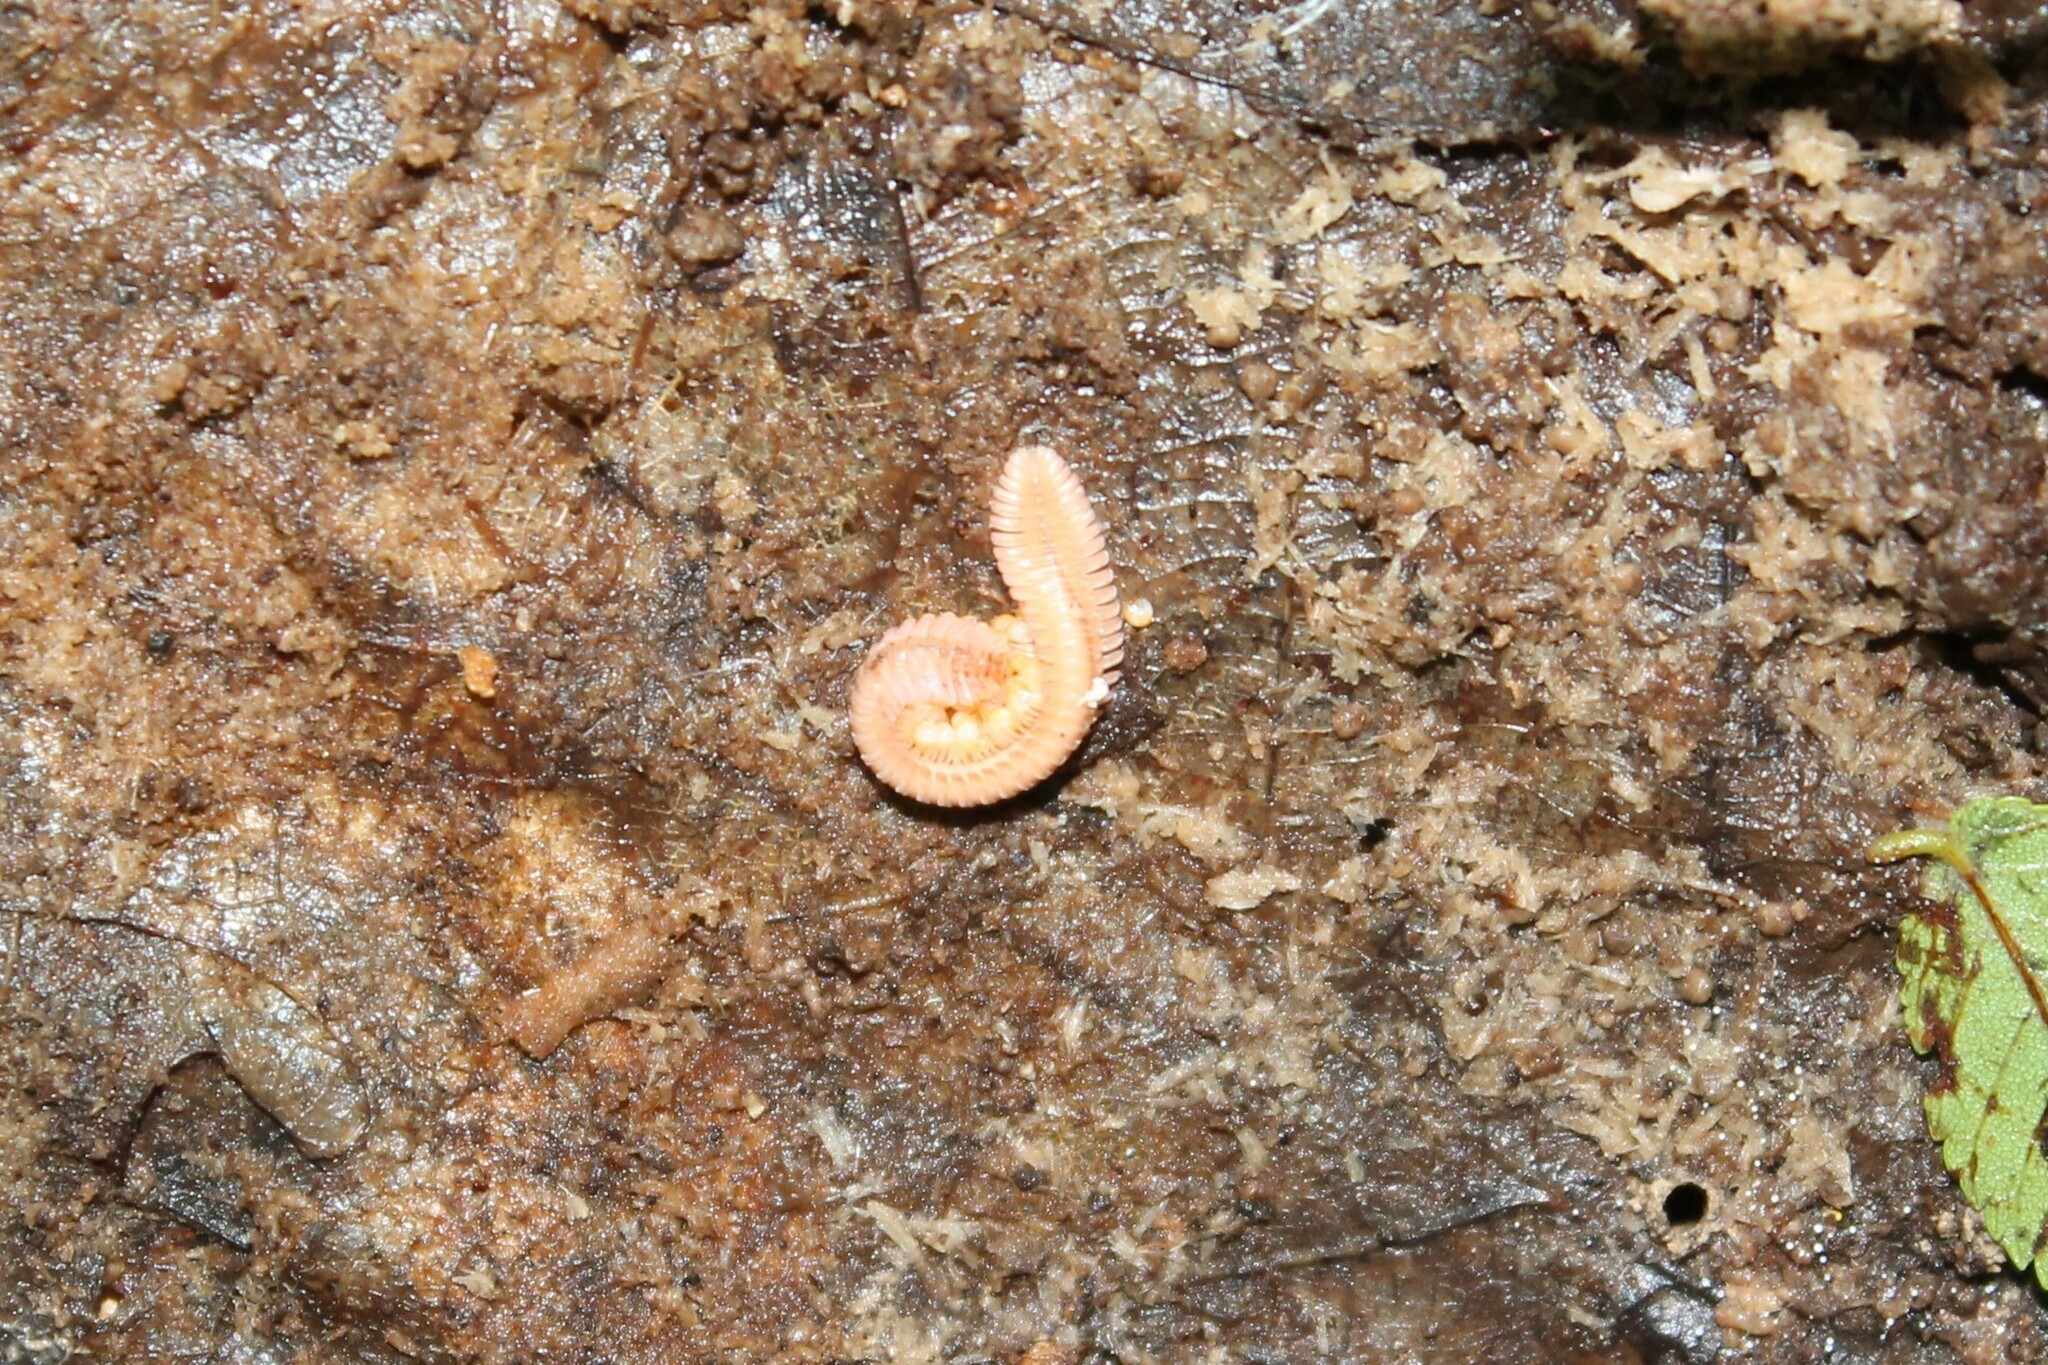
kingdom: Animalia
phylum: Arthropoda
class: Diplopoda
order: Platydesmida
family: Andrognathidae
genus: Brachycybe
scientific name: Brachycybe lecontii
